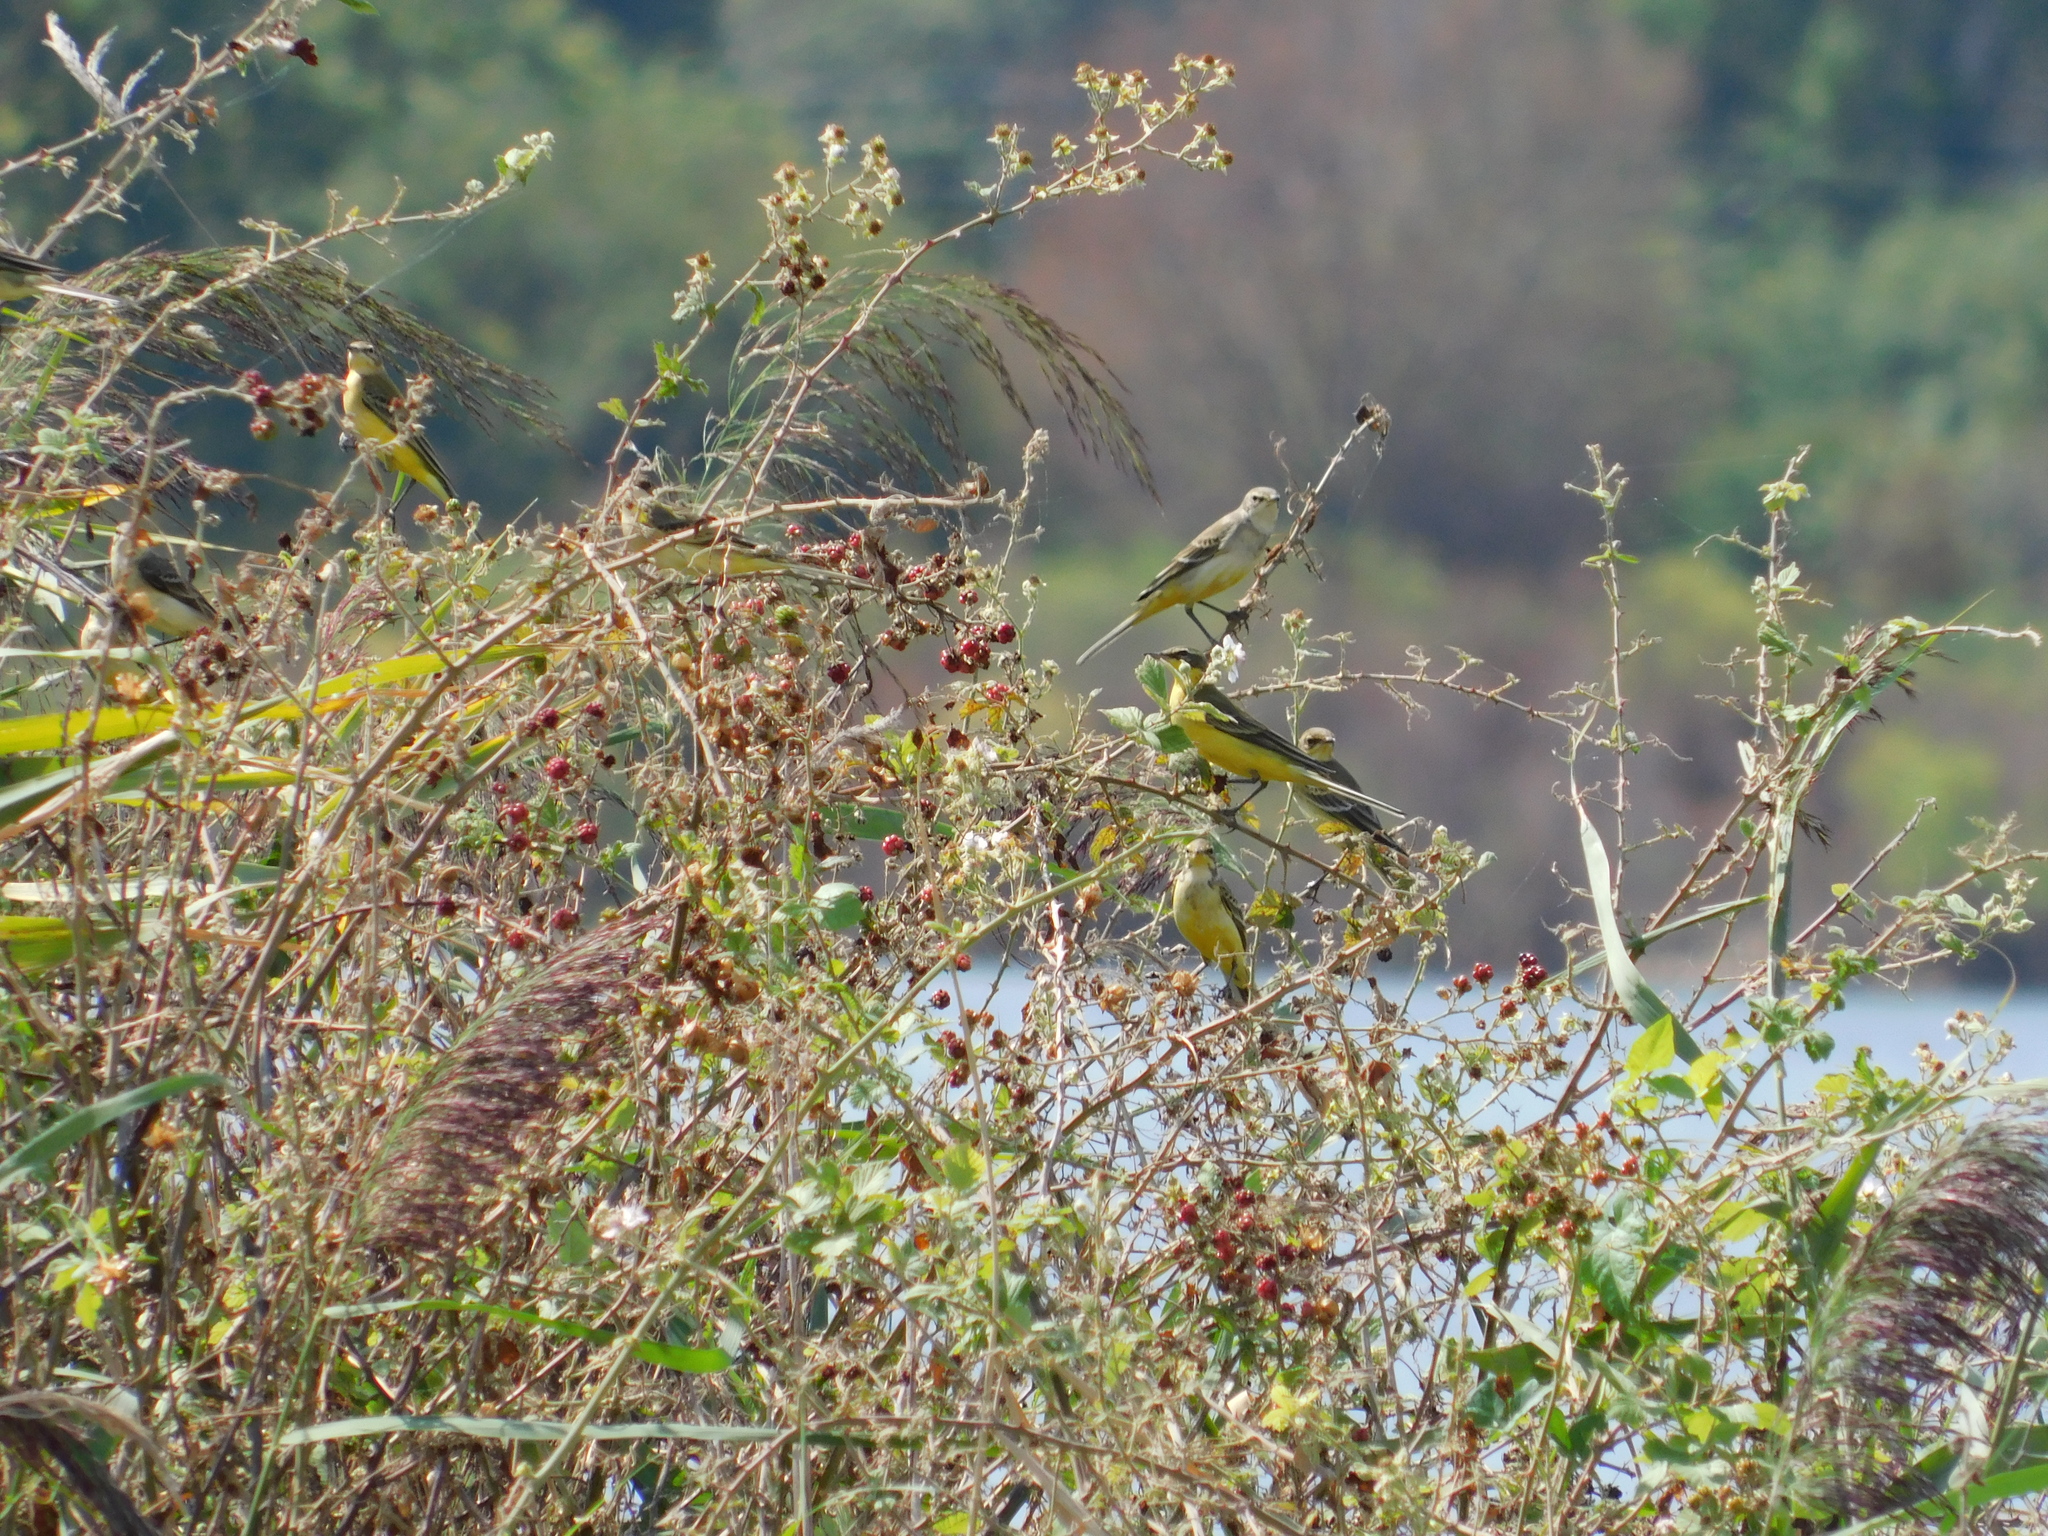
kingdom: Animalia
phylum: Chordata
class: Aves
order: Passeriformes
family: Motacillidae
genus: Motacilla
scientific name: Motacilla flava
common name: Western yellow wagtail
